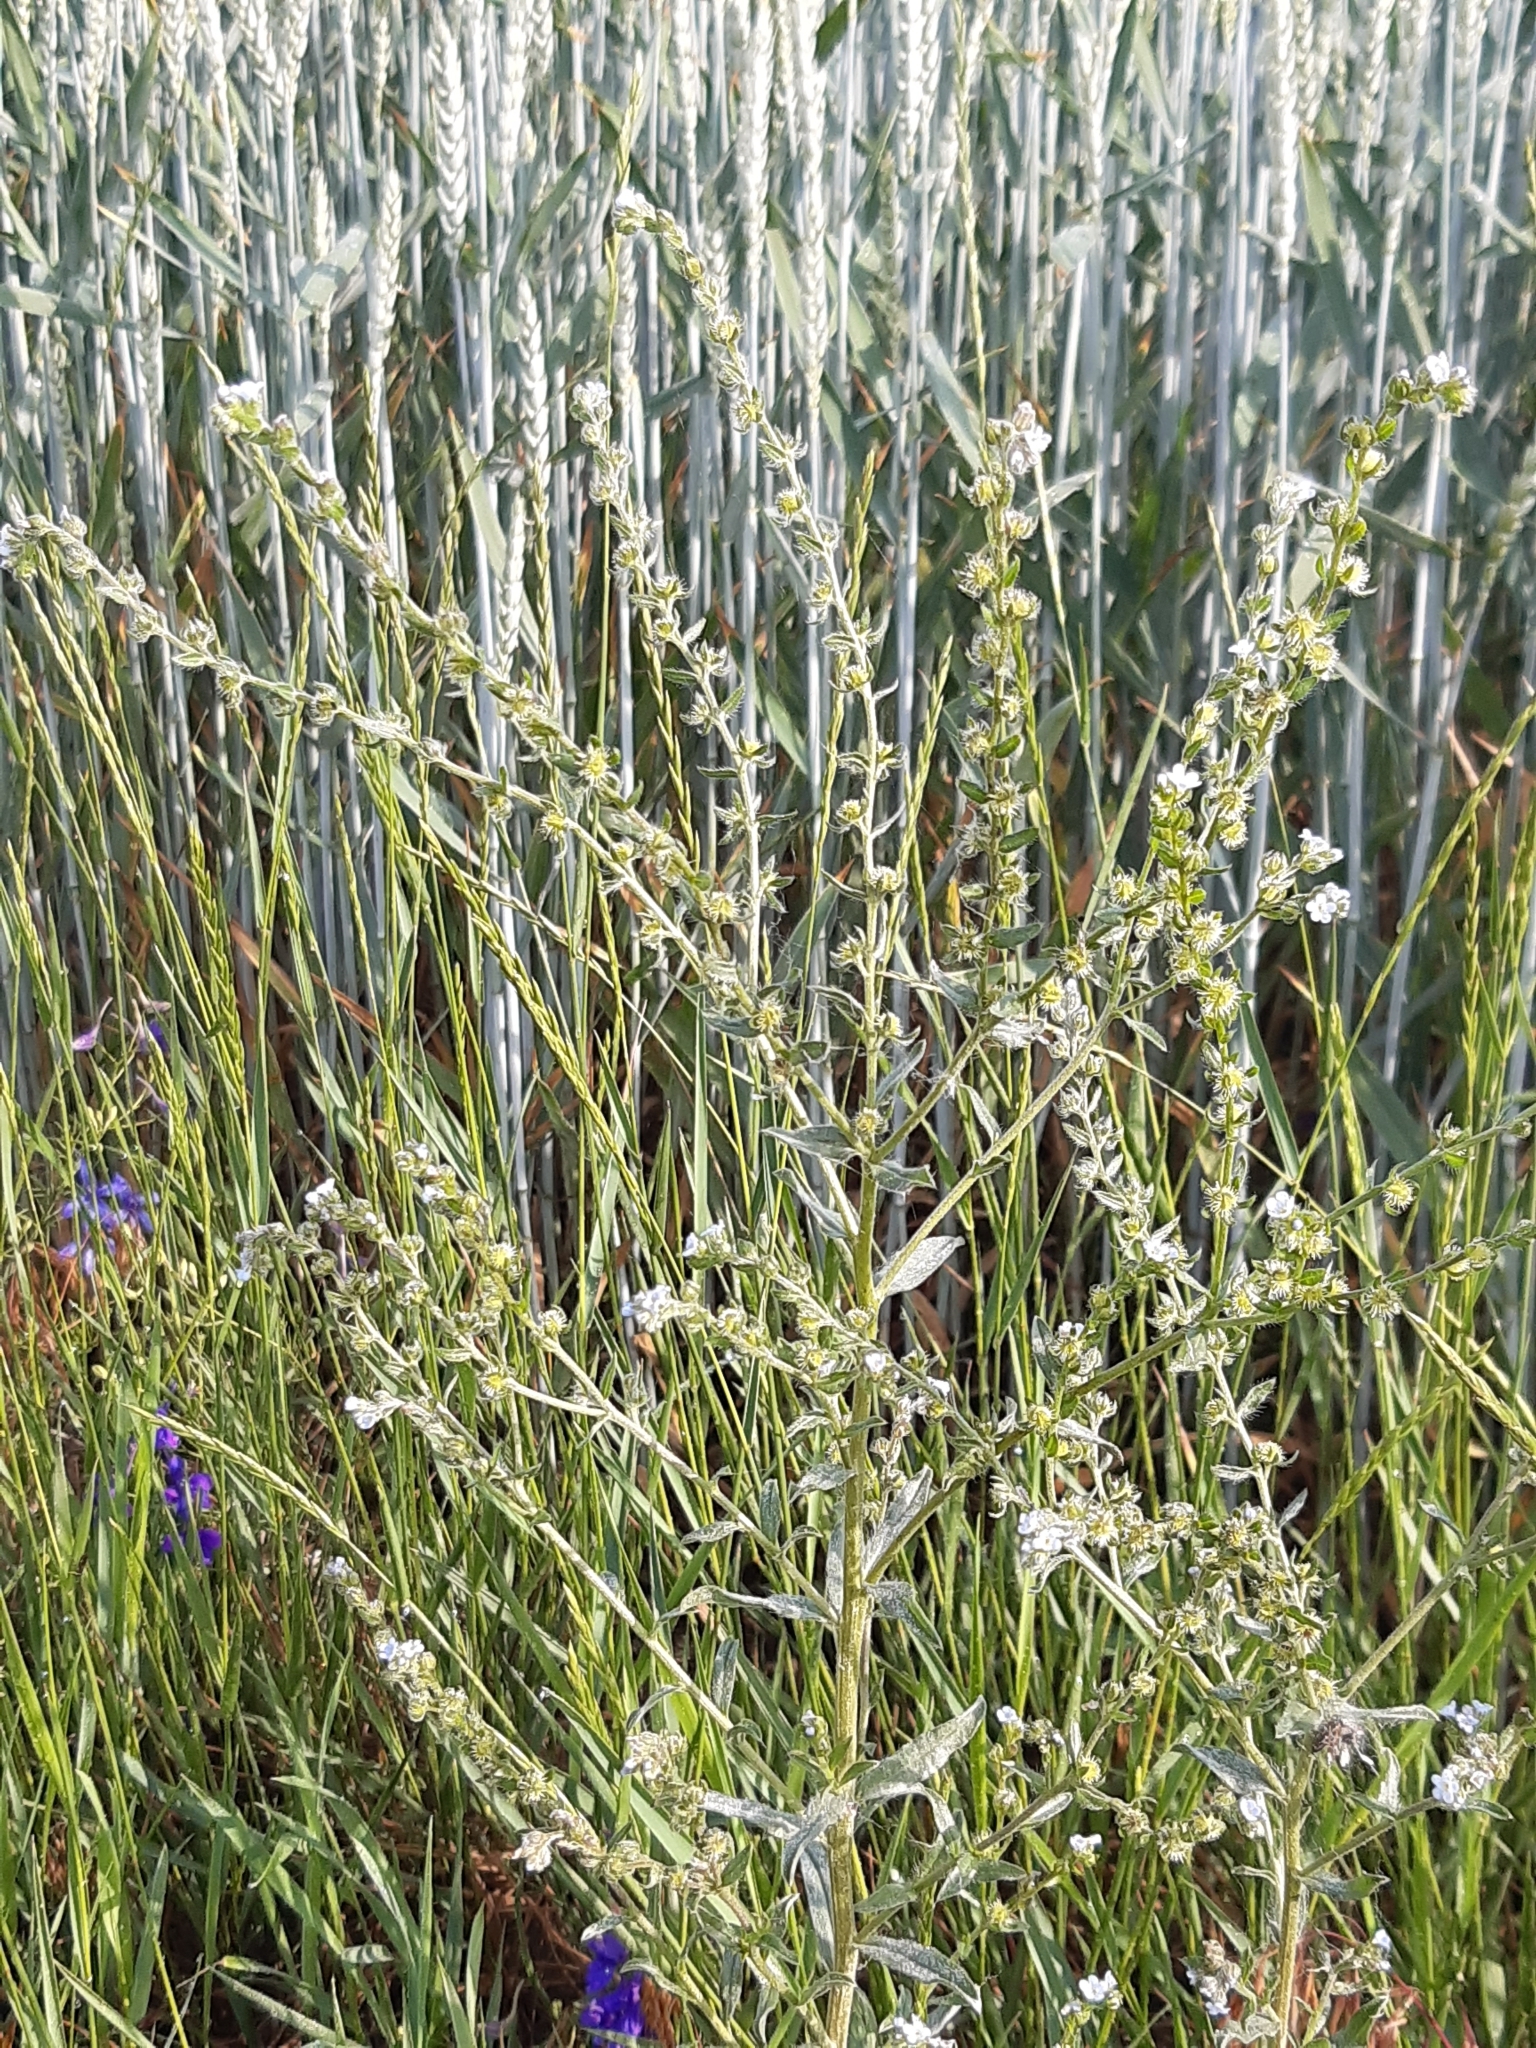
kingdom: Plantae
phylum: Tracheophyta
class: Magnoliopsida
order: Boraginales
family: Boraginaceae
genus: Lappula
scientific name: Lappula squarrosa
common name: European stickseed
